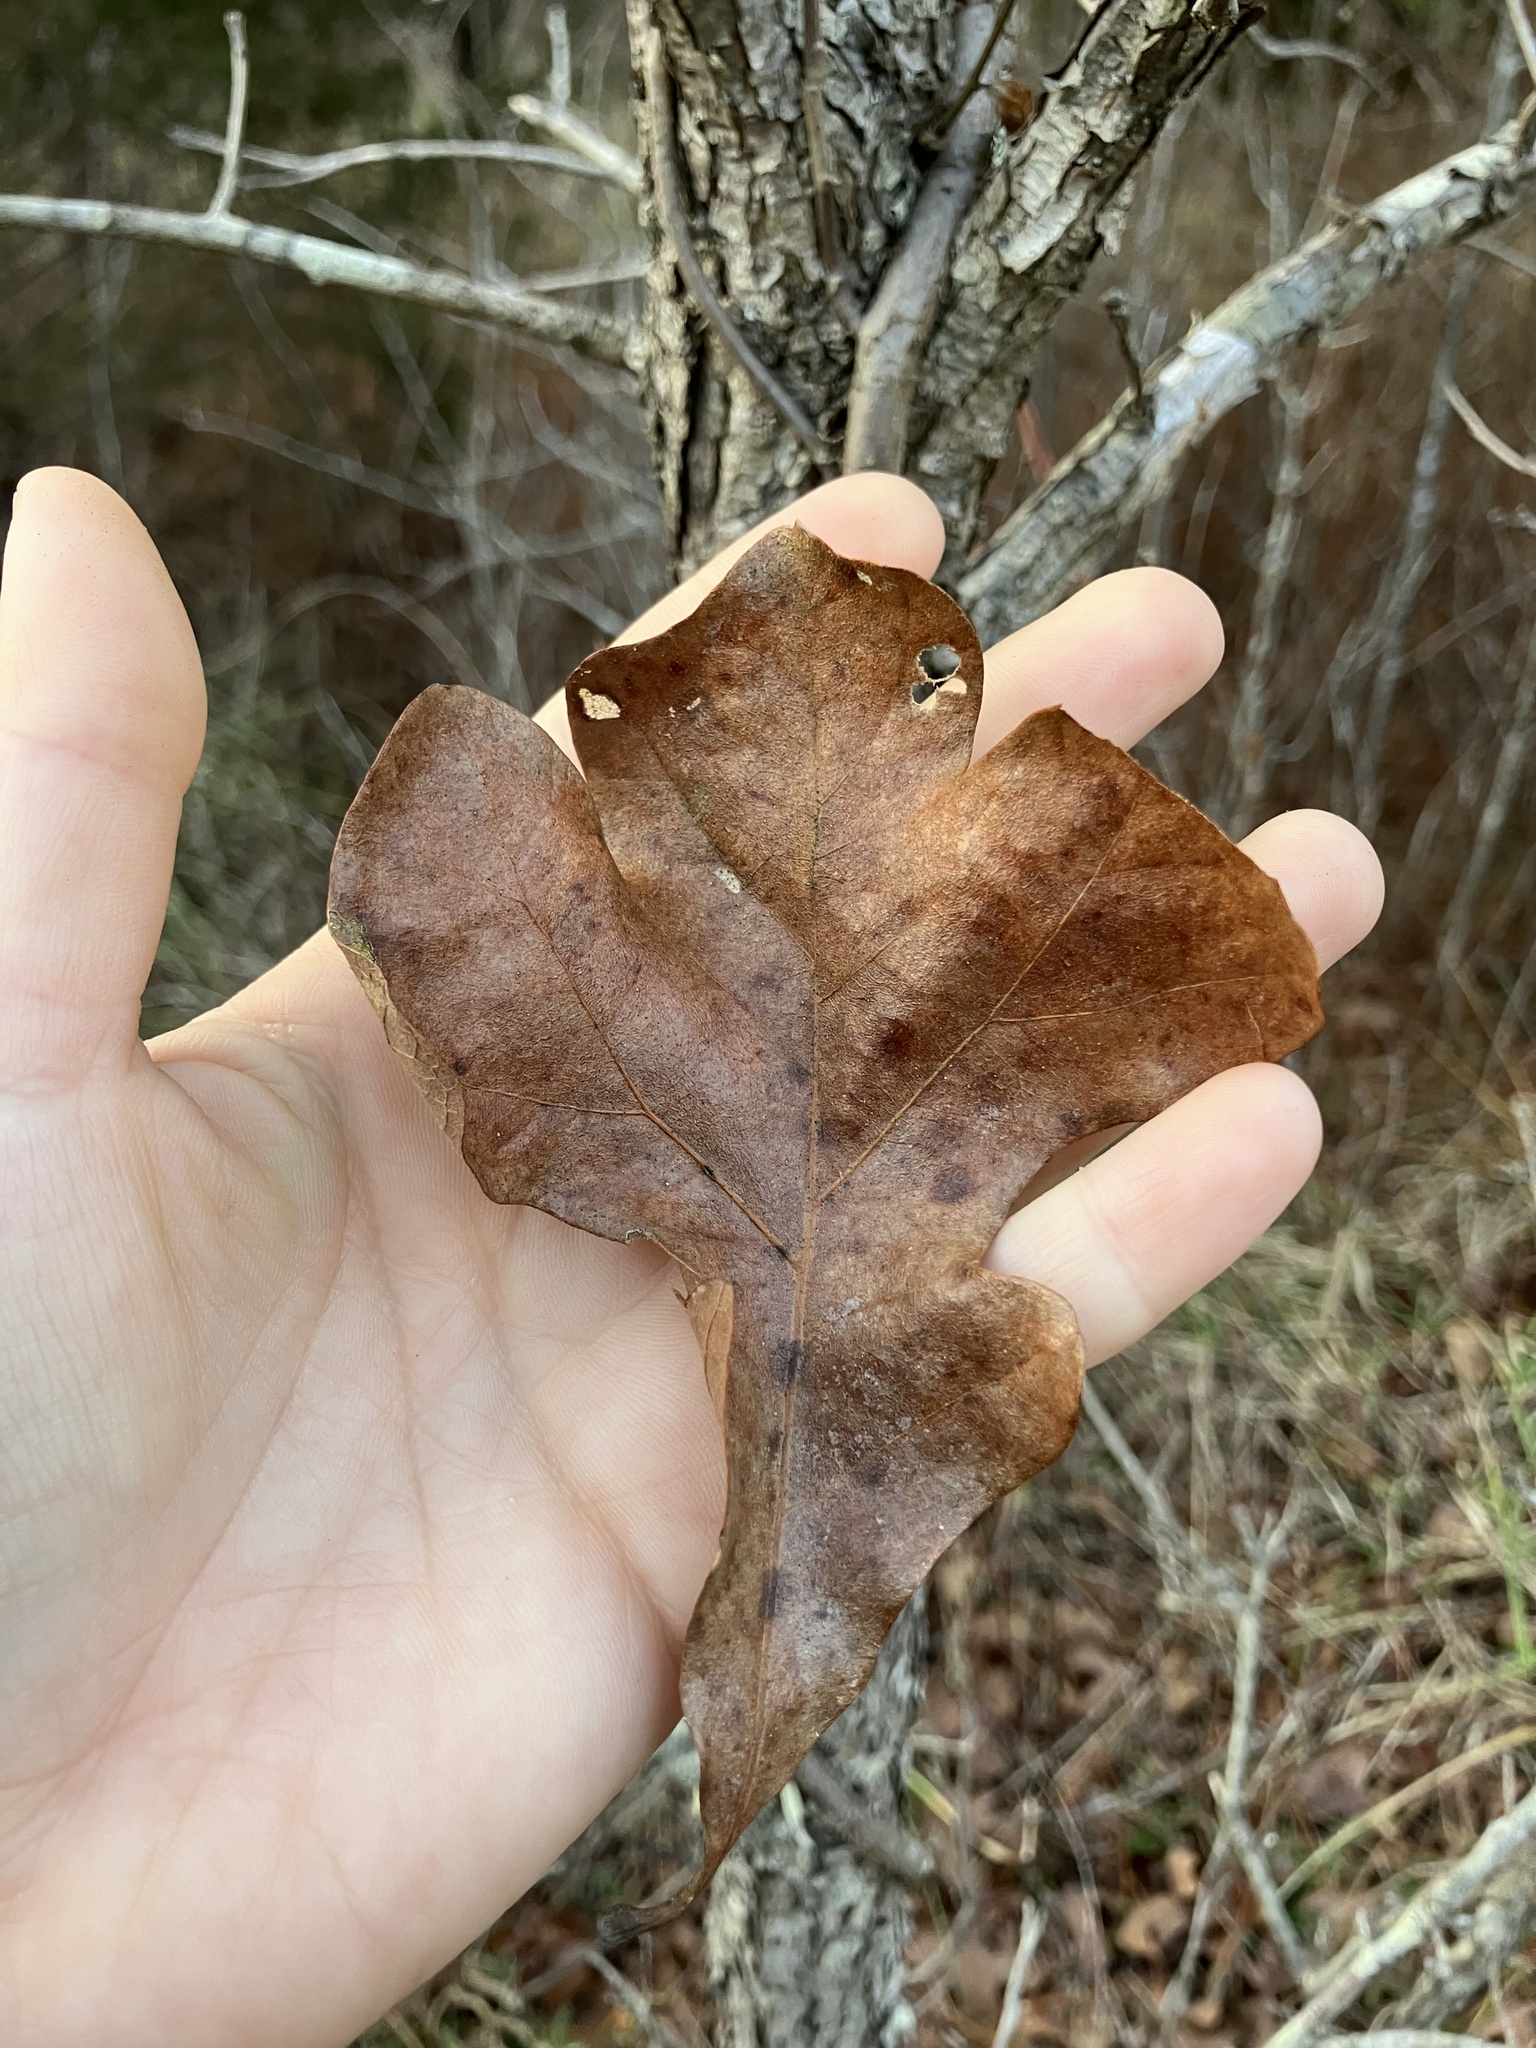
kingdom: Plantae
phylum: Tracheophyta
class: Magnoliopsida
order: Fagales
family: Fagaceae
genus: Quercus
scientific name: Quercus stellata
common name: Post oak
